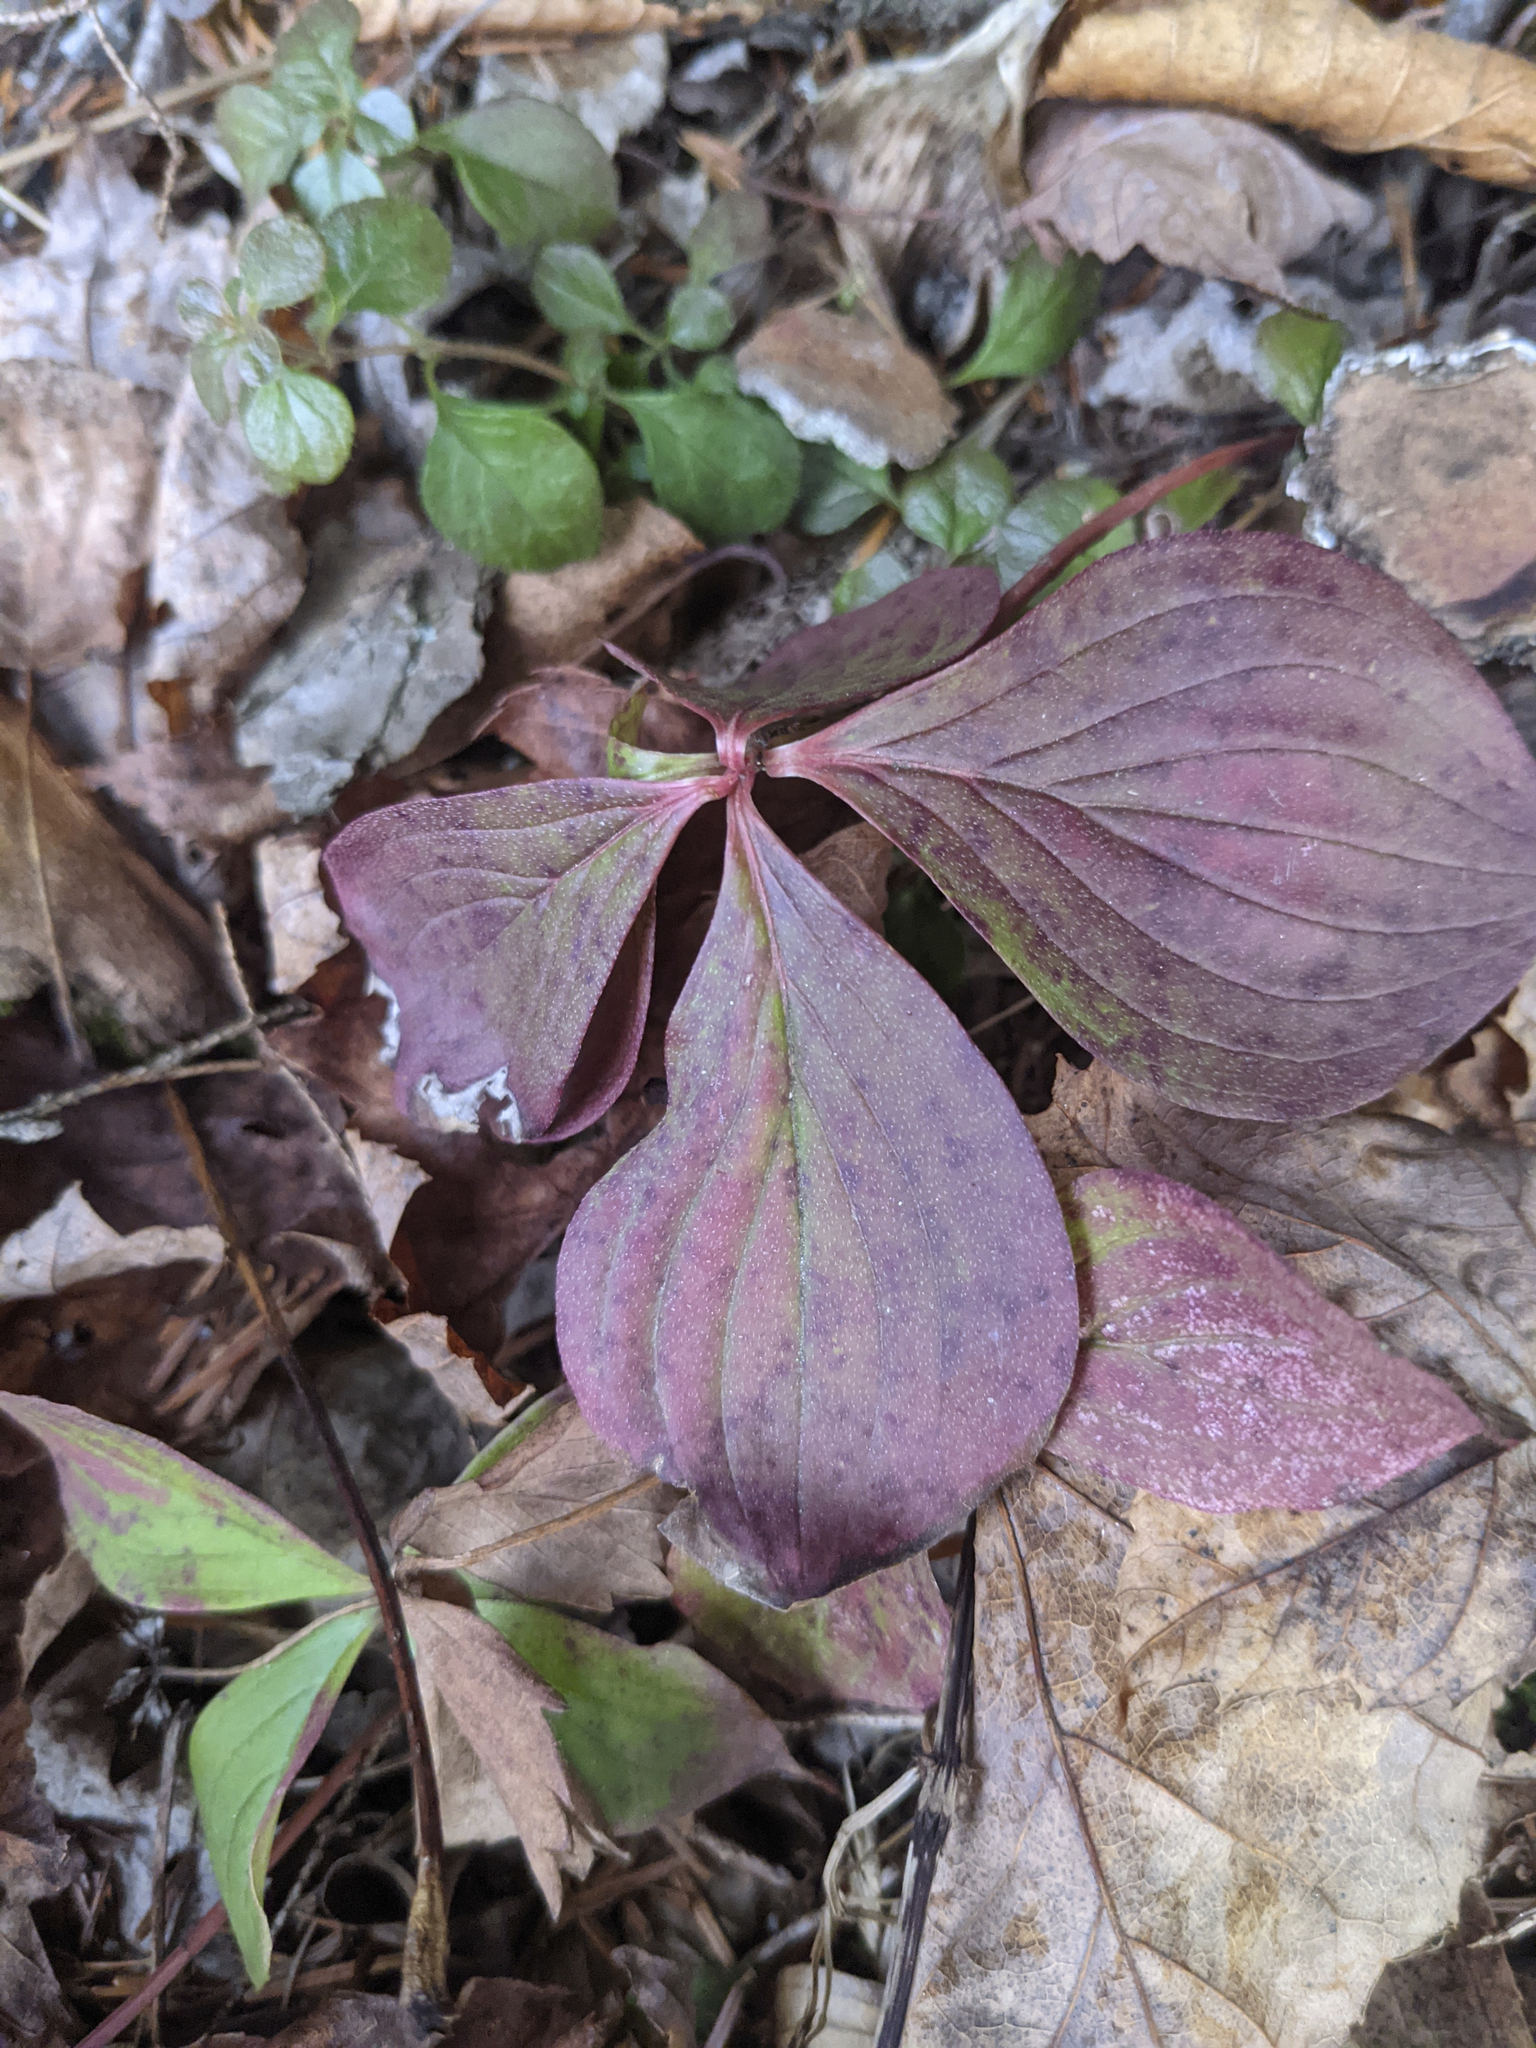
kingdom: Plantae
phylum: Tracheophyta
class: Magnoliopsida
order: Cornales
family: Cornaceae
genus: Cornus
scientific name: Cornus canadensis
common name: Creeping dogwood
